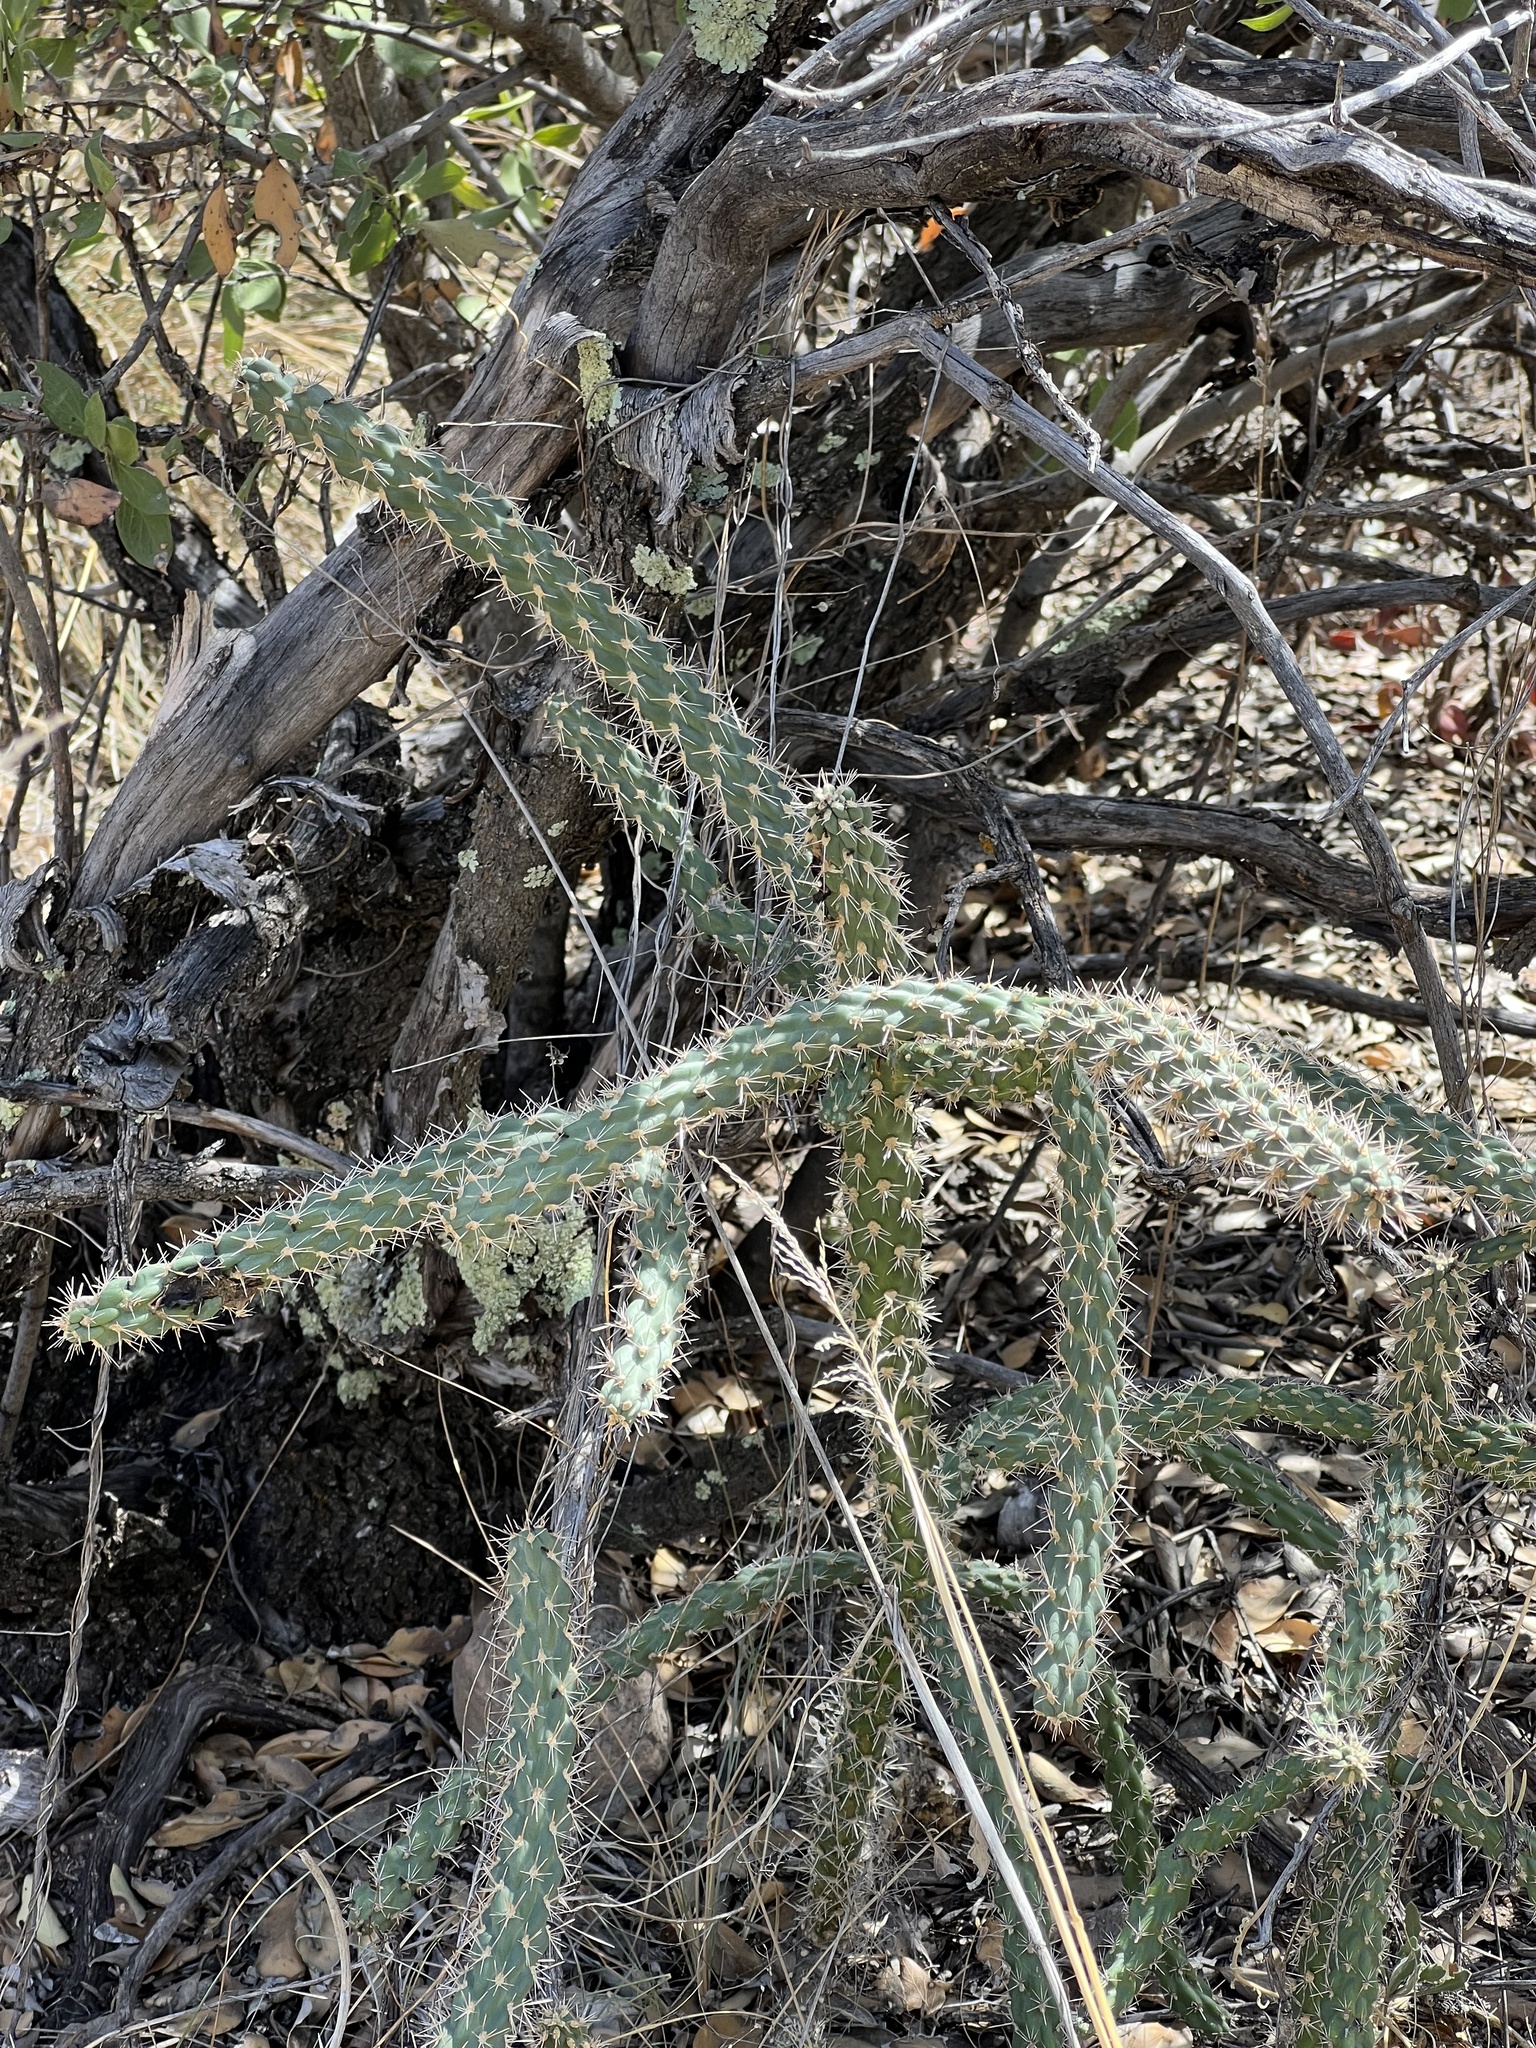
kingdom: Plantae
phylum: Tracheophyta
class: Magnoliopsida
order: Caryophyllales
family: Cactaceae
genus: Cylindropuntia
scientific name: Cylindropuntia imbricata
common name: Candelabrum cactus
